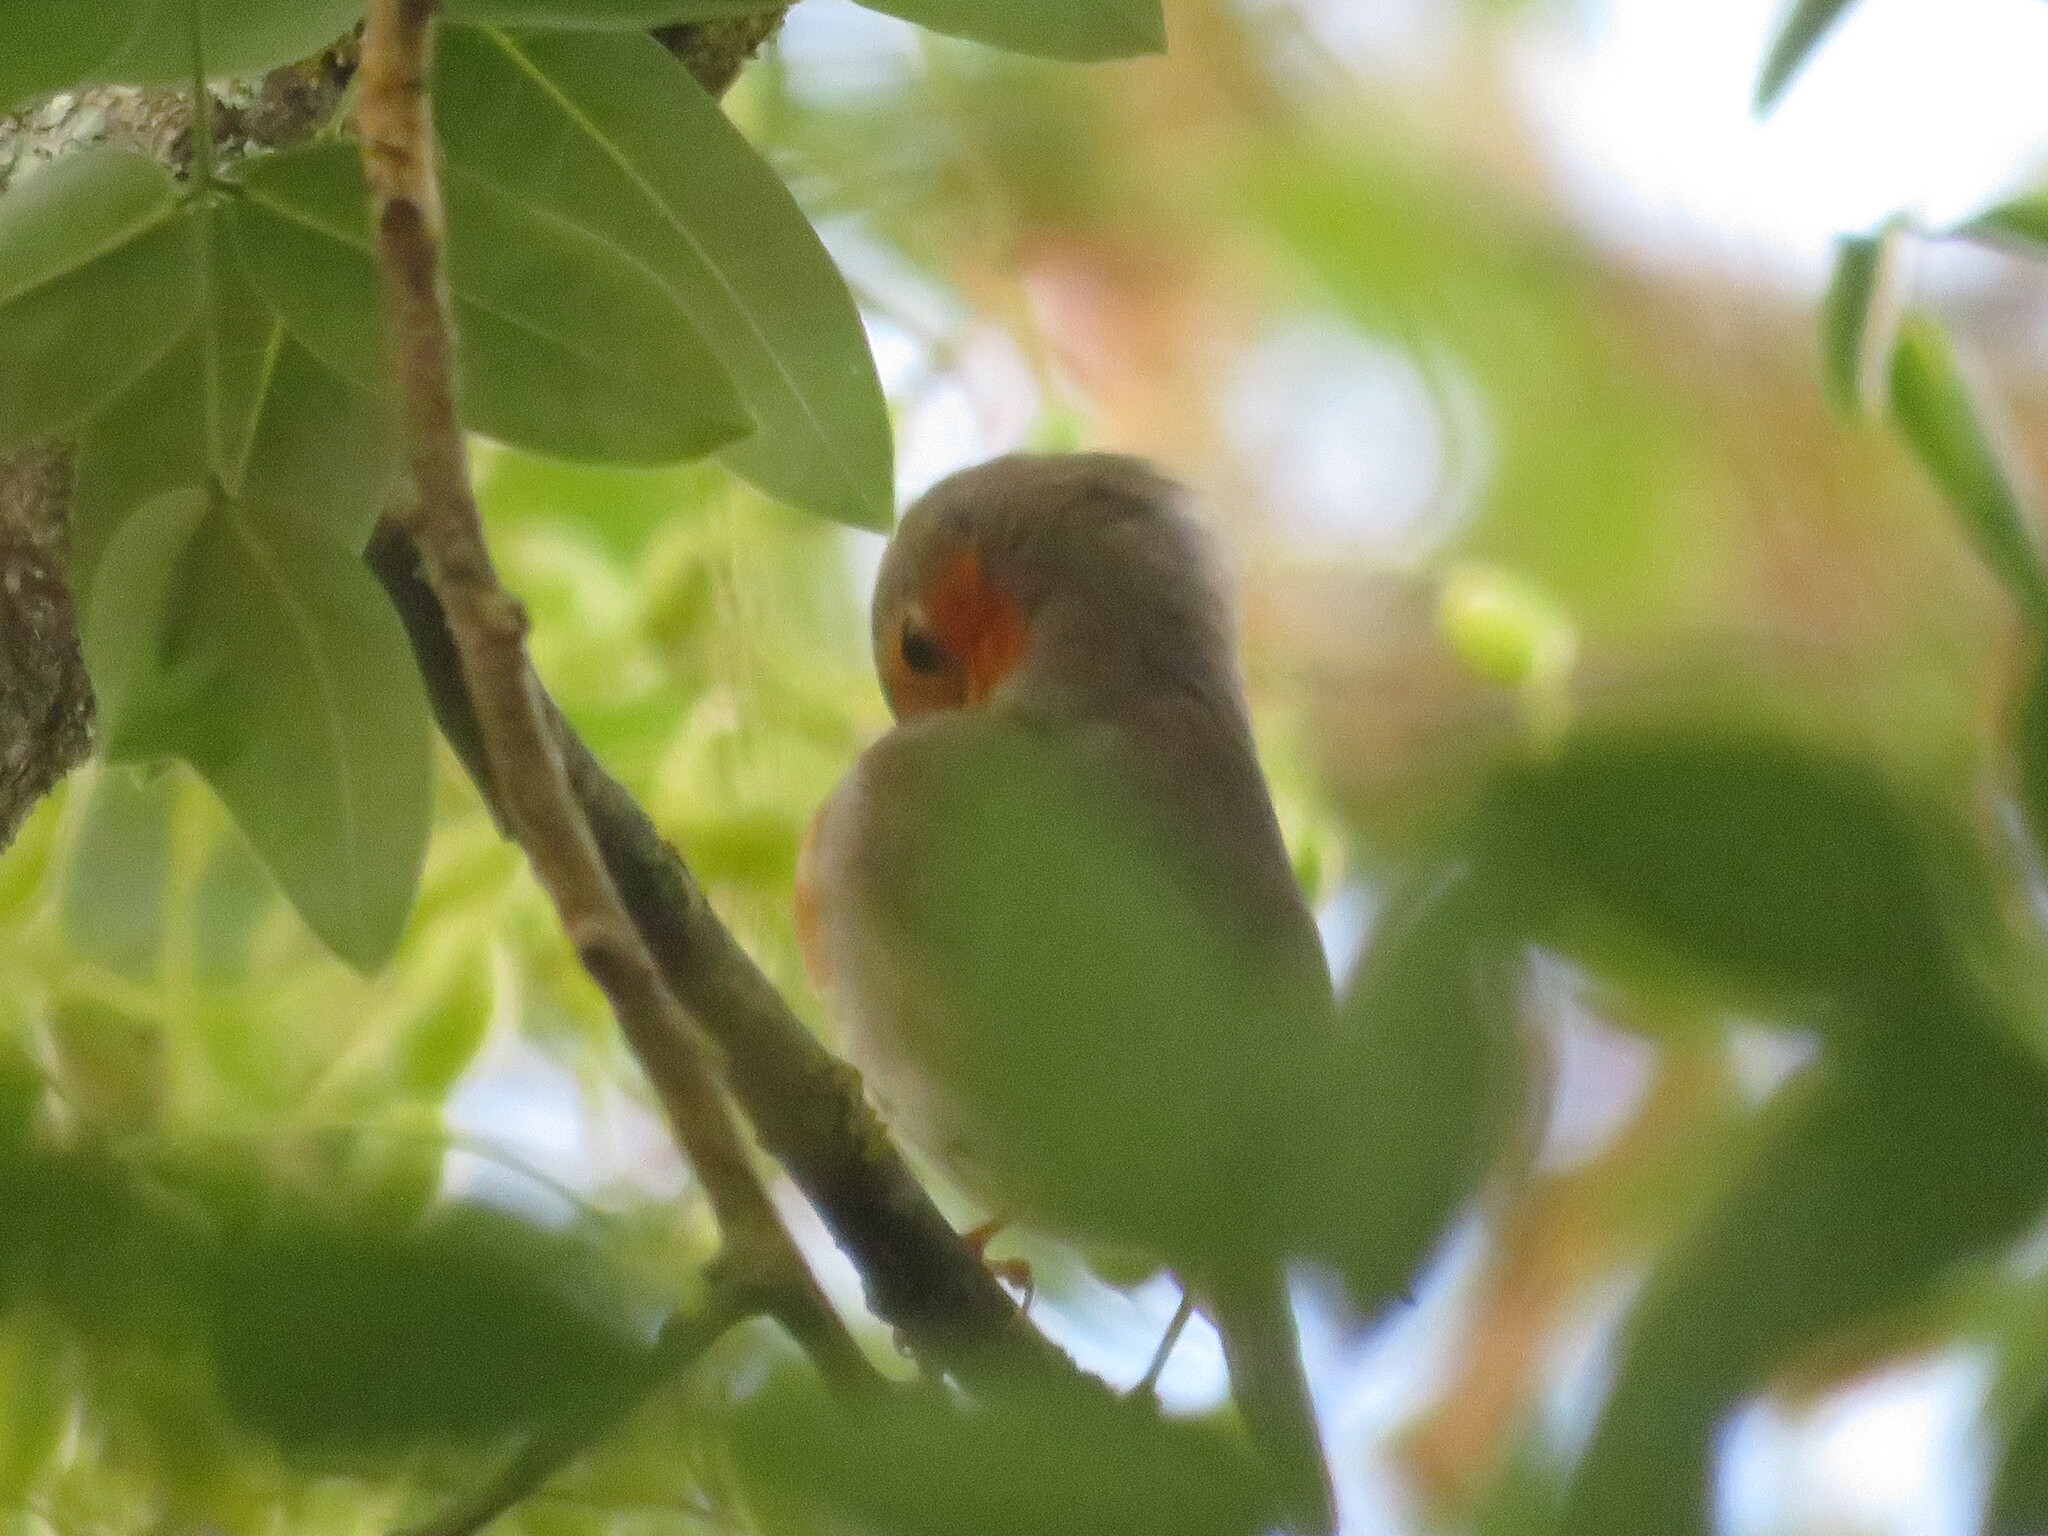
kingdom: Animalia
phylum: Chordata
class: Aves
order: Passeriformes
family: Muscicapidae
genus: Erithacus
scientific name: Erithacus rubecula
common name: European robin
